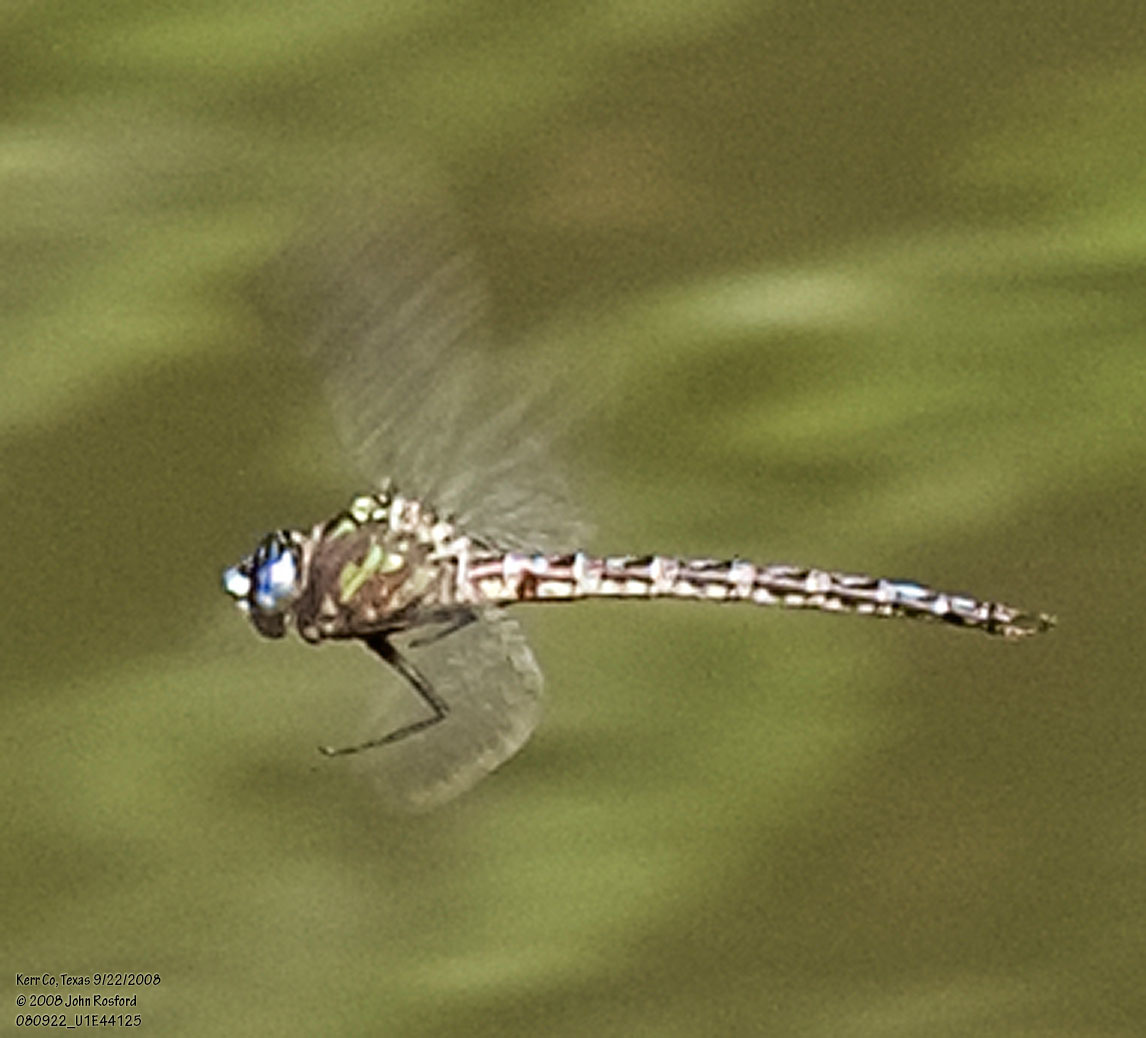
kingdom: Animalia
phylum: Arthropoda
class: Insecta
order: Odonata
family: Aeshnidae
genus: Nasiaeschna
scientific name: Nasiaeschna pentacantha
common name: Cyrano darner
